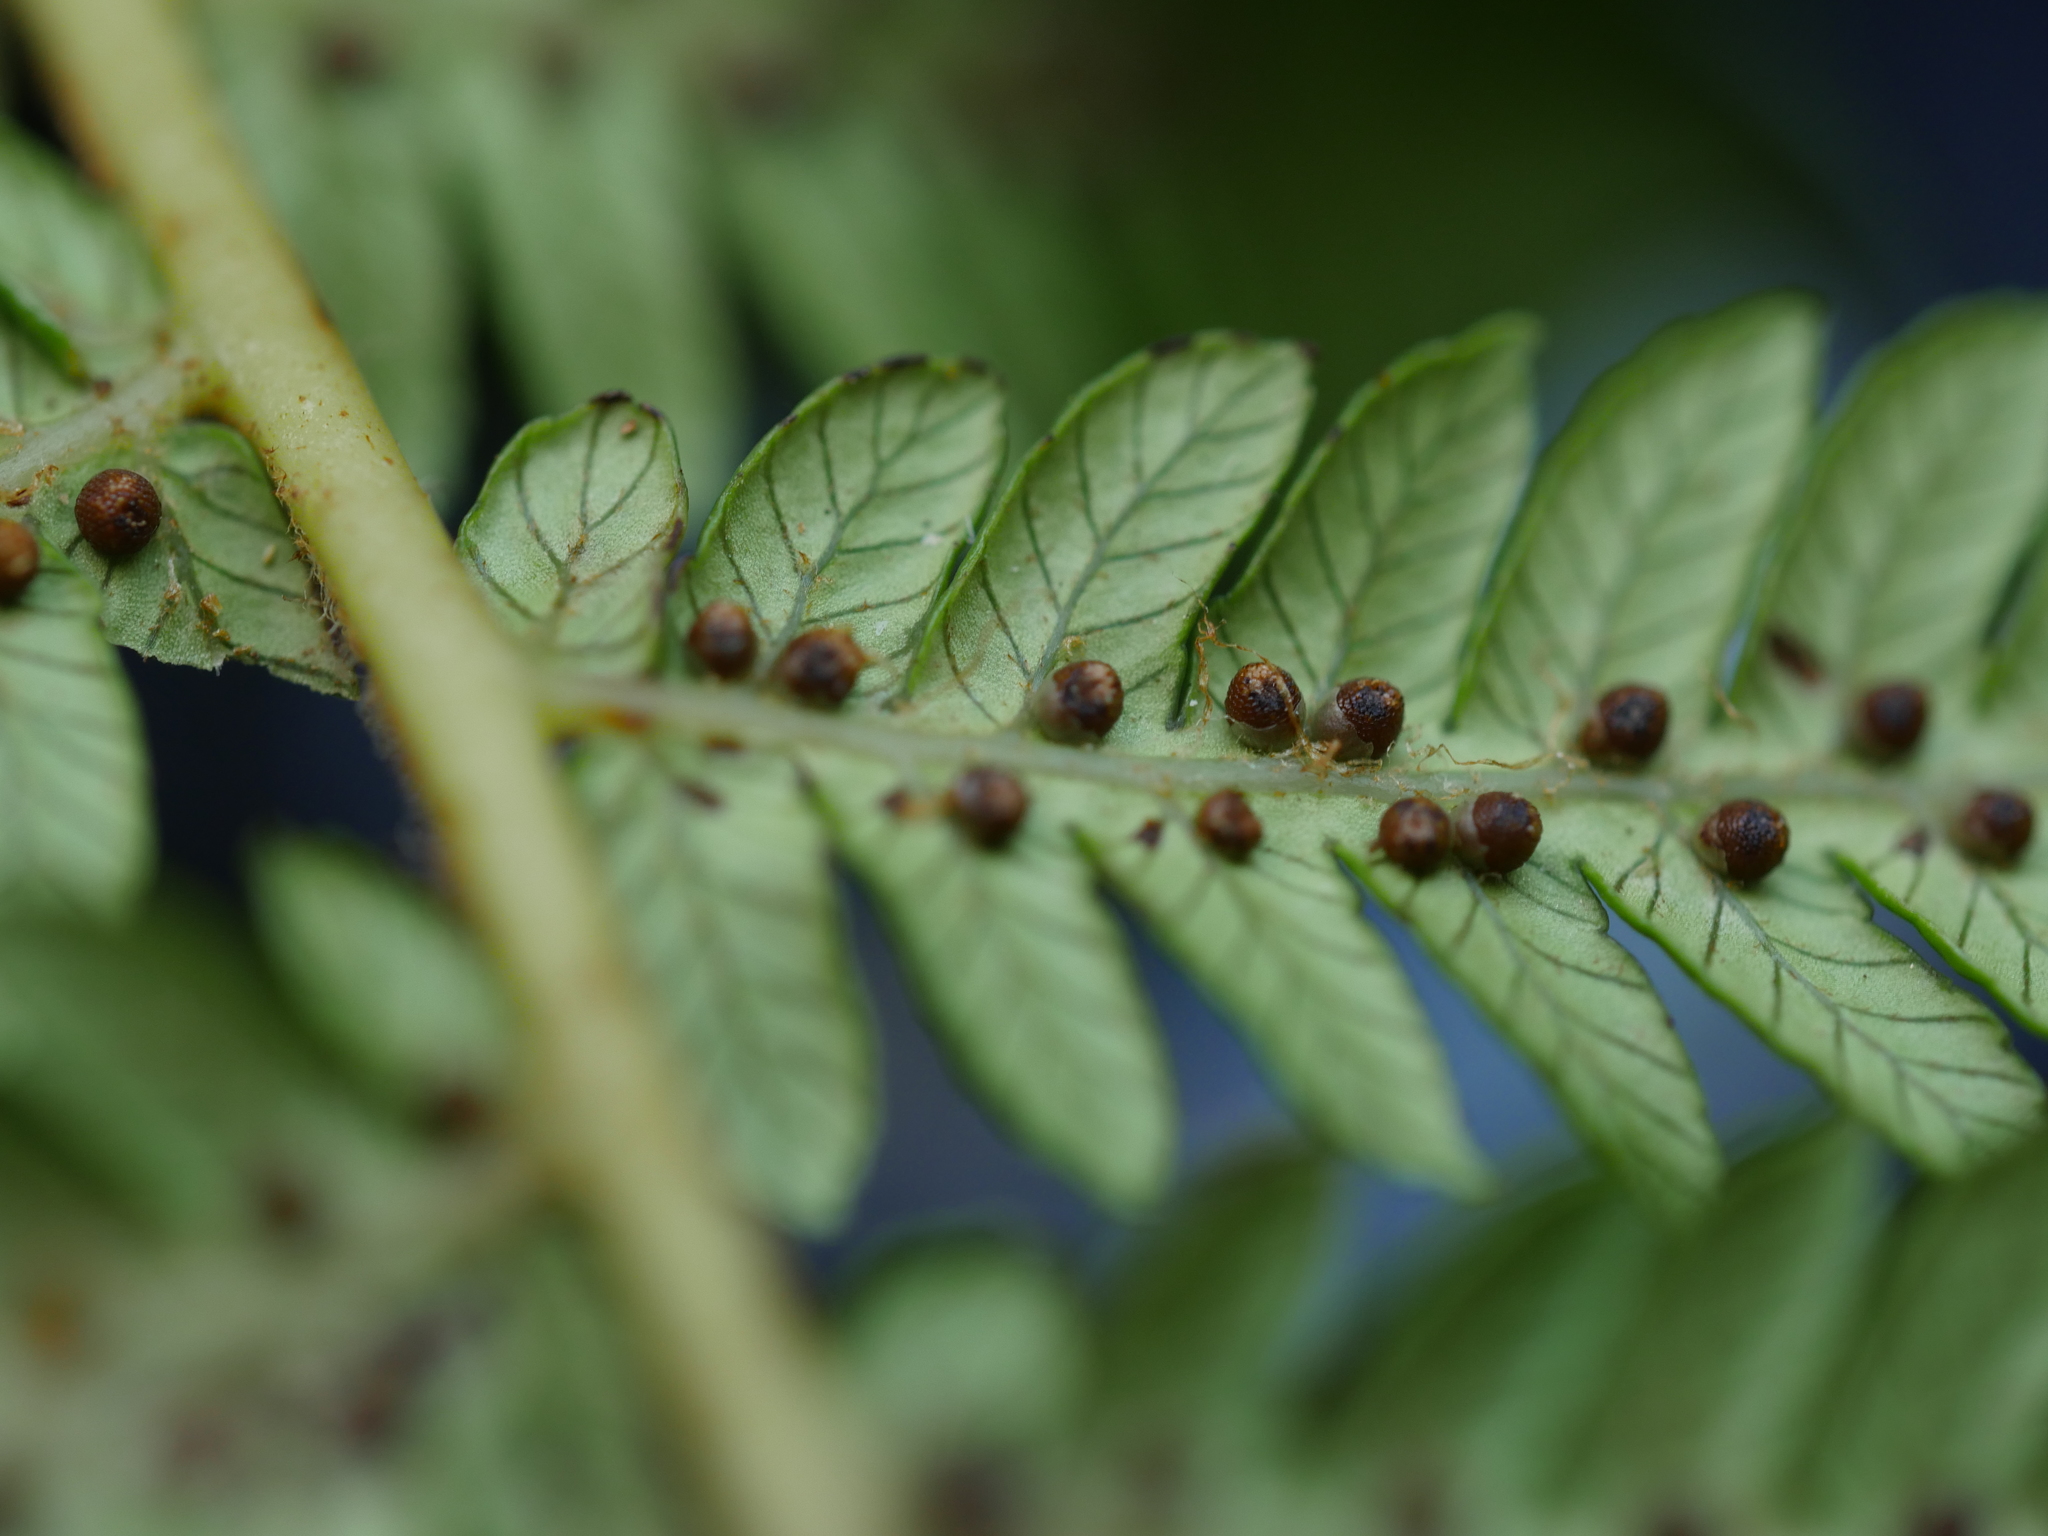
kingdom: Plantae
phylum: Tracheophyta
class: Polypodiopsida
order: Cyatheales
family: Cyatheaceae
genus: Cyathea
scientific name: Cyathea cunninghamii
